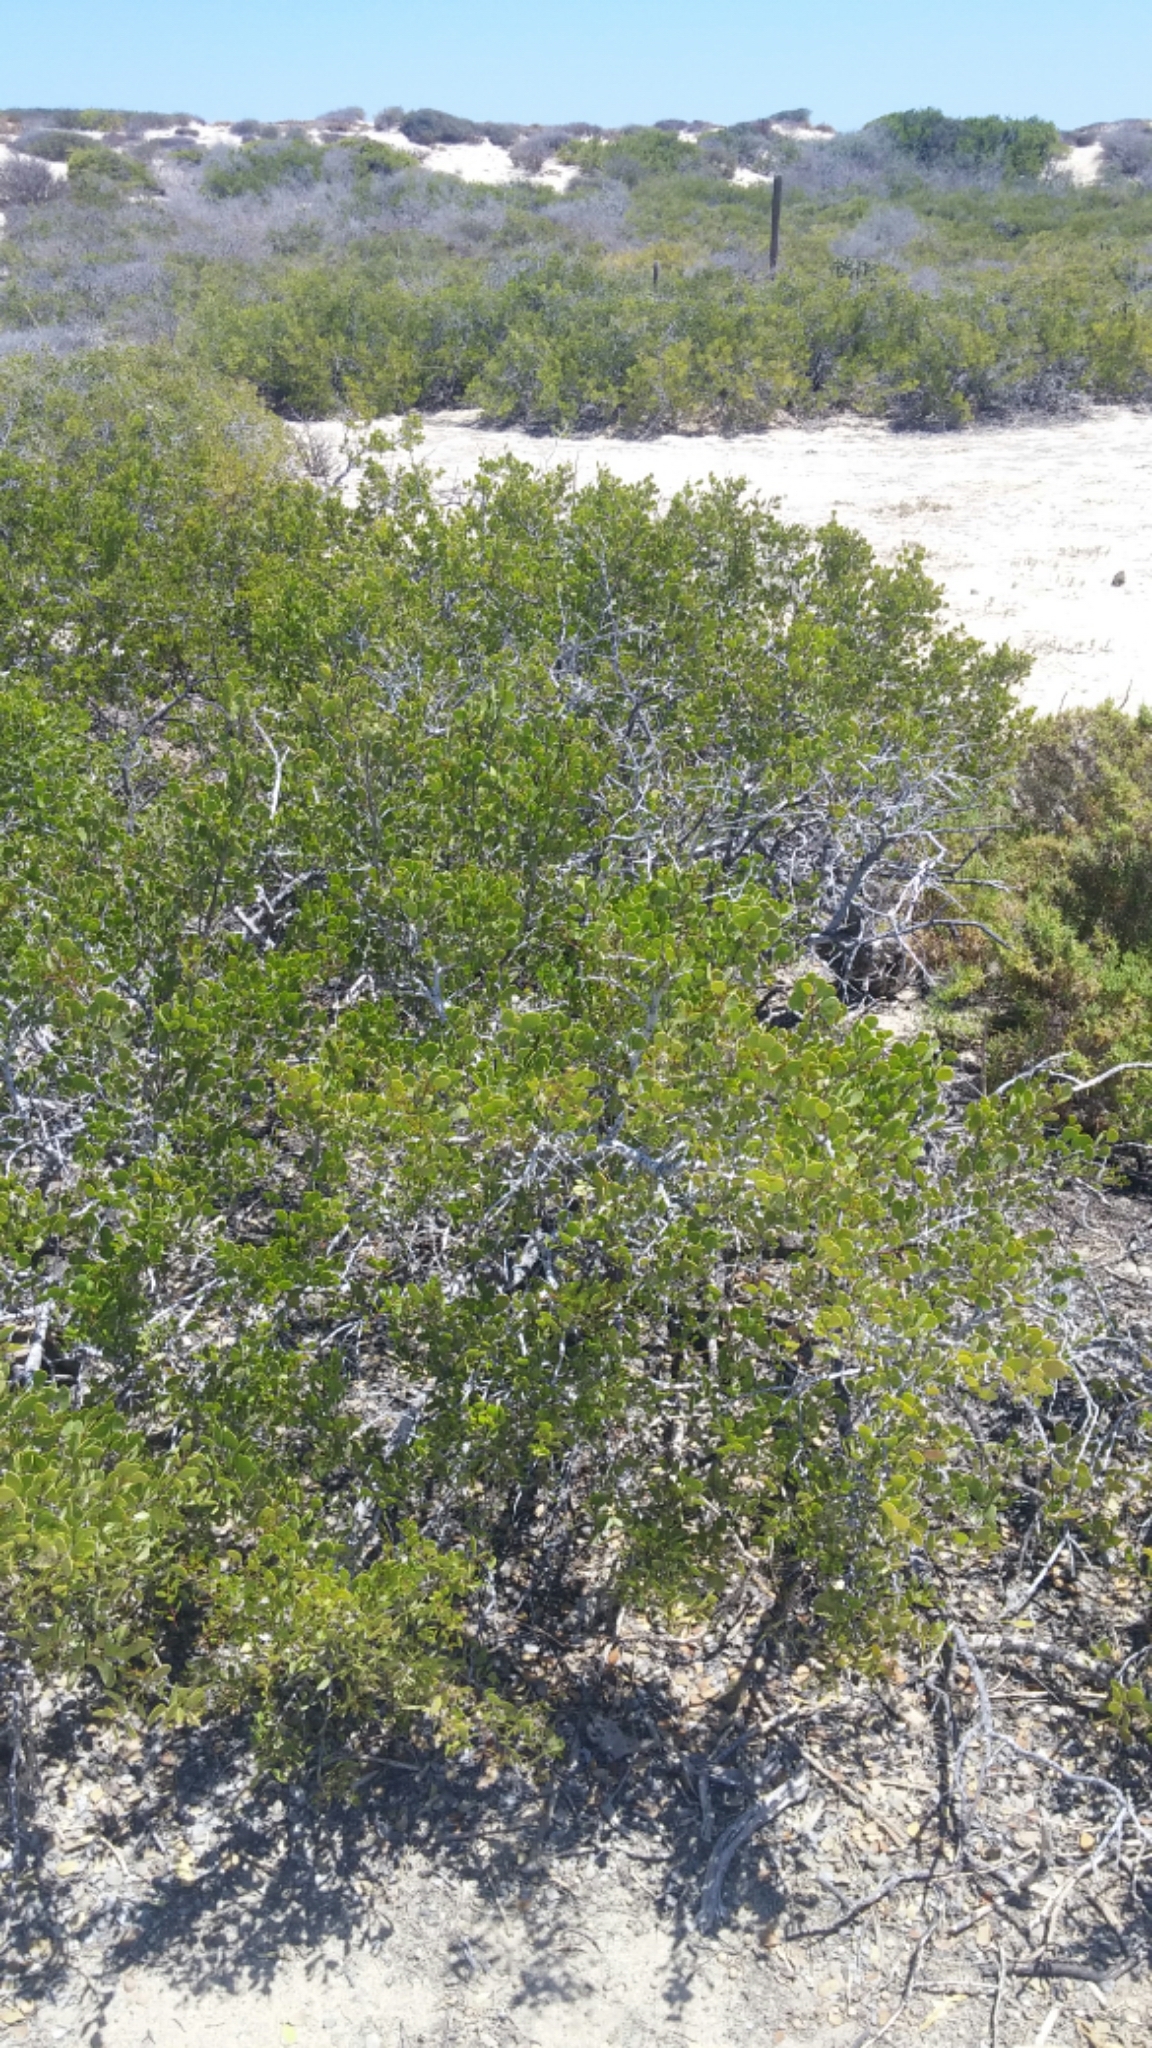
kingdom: Plantae
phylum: Tracheophyta
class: Magnoliopsida
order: Celastrales
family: Celastraceae
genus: Tricerma
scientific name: Tricerma phyllanthoides
